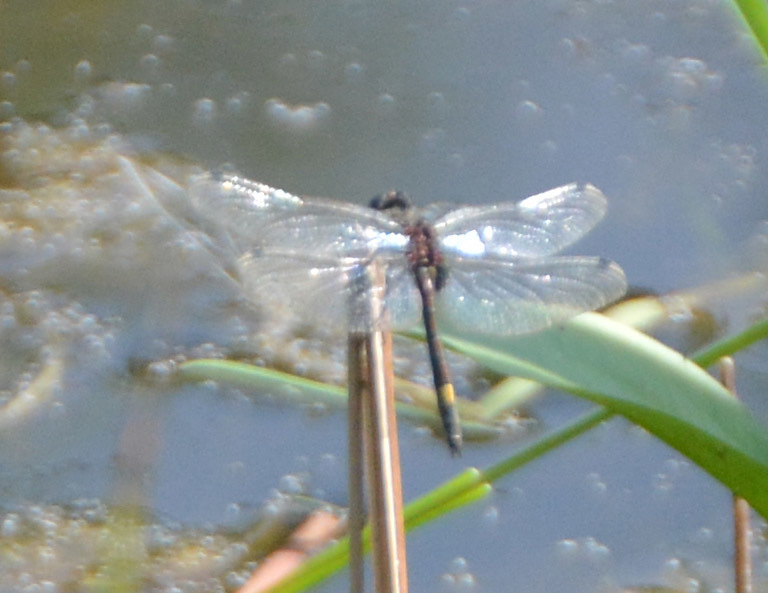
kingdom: Animalia
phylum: Arthropoda
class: Insecta
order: Odonata
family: Libellulidae
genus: Leucorrhinia
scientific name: Leucorrhinia pectoralis
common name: Yellow-spotted whiteface
